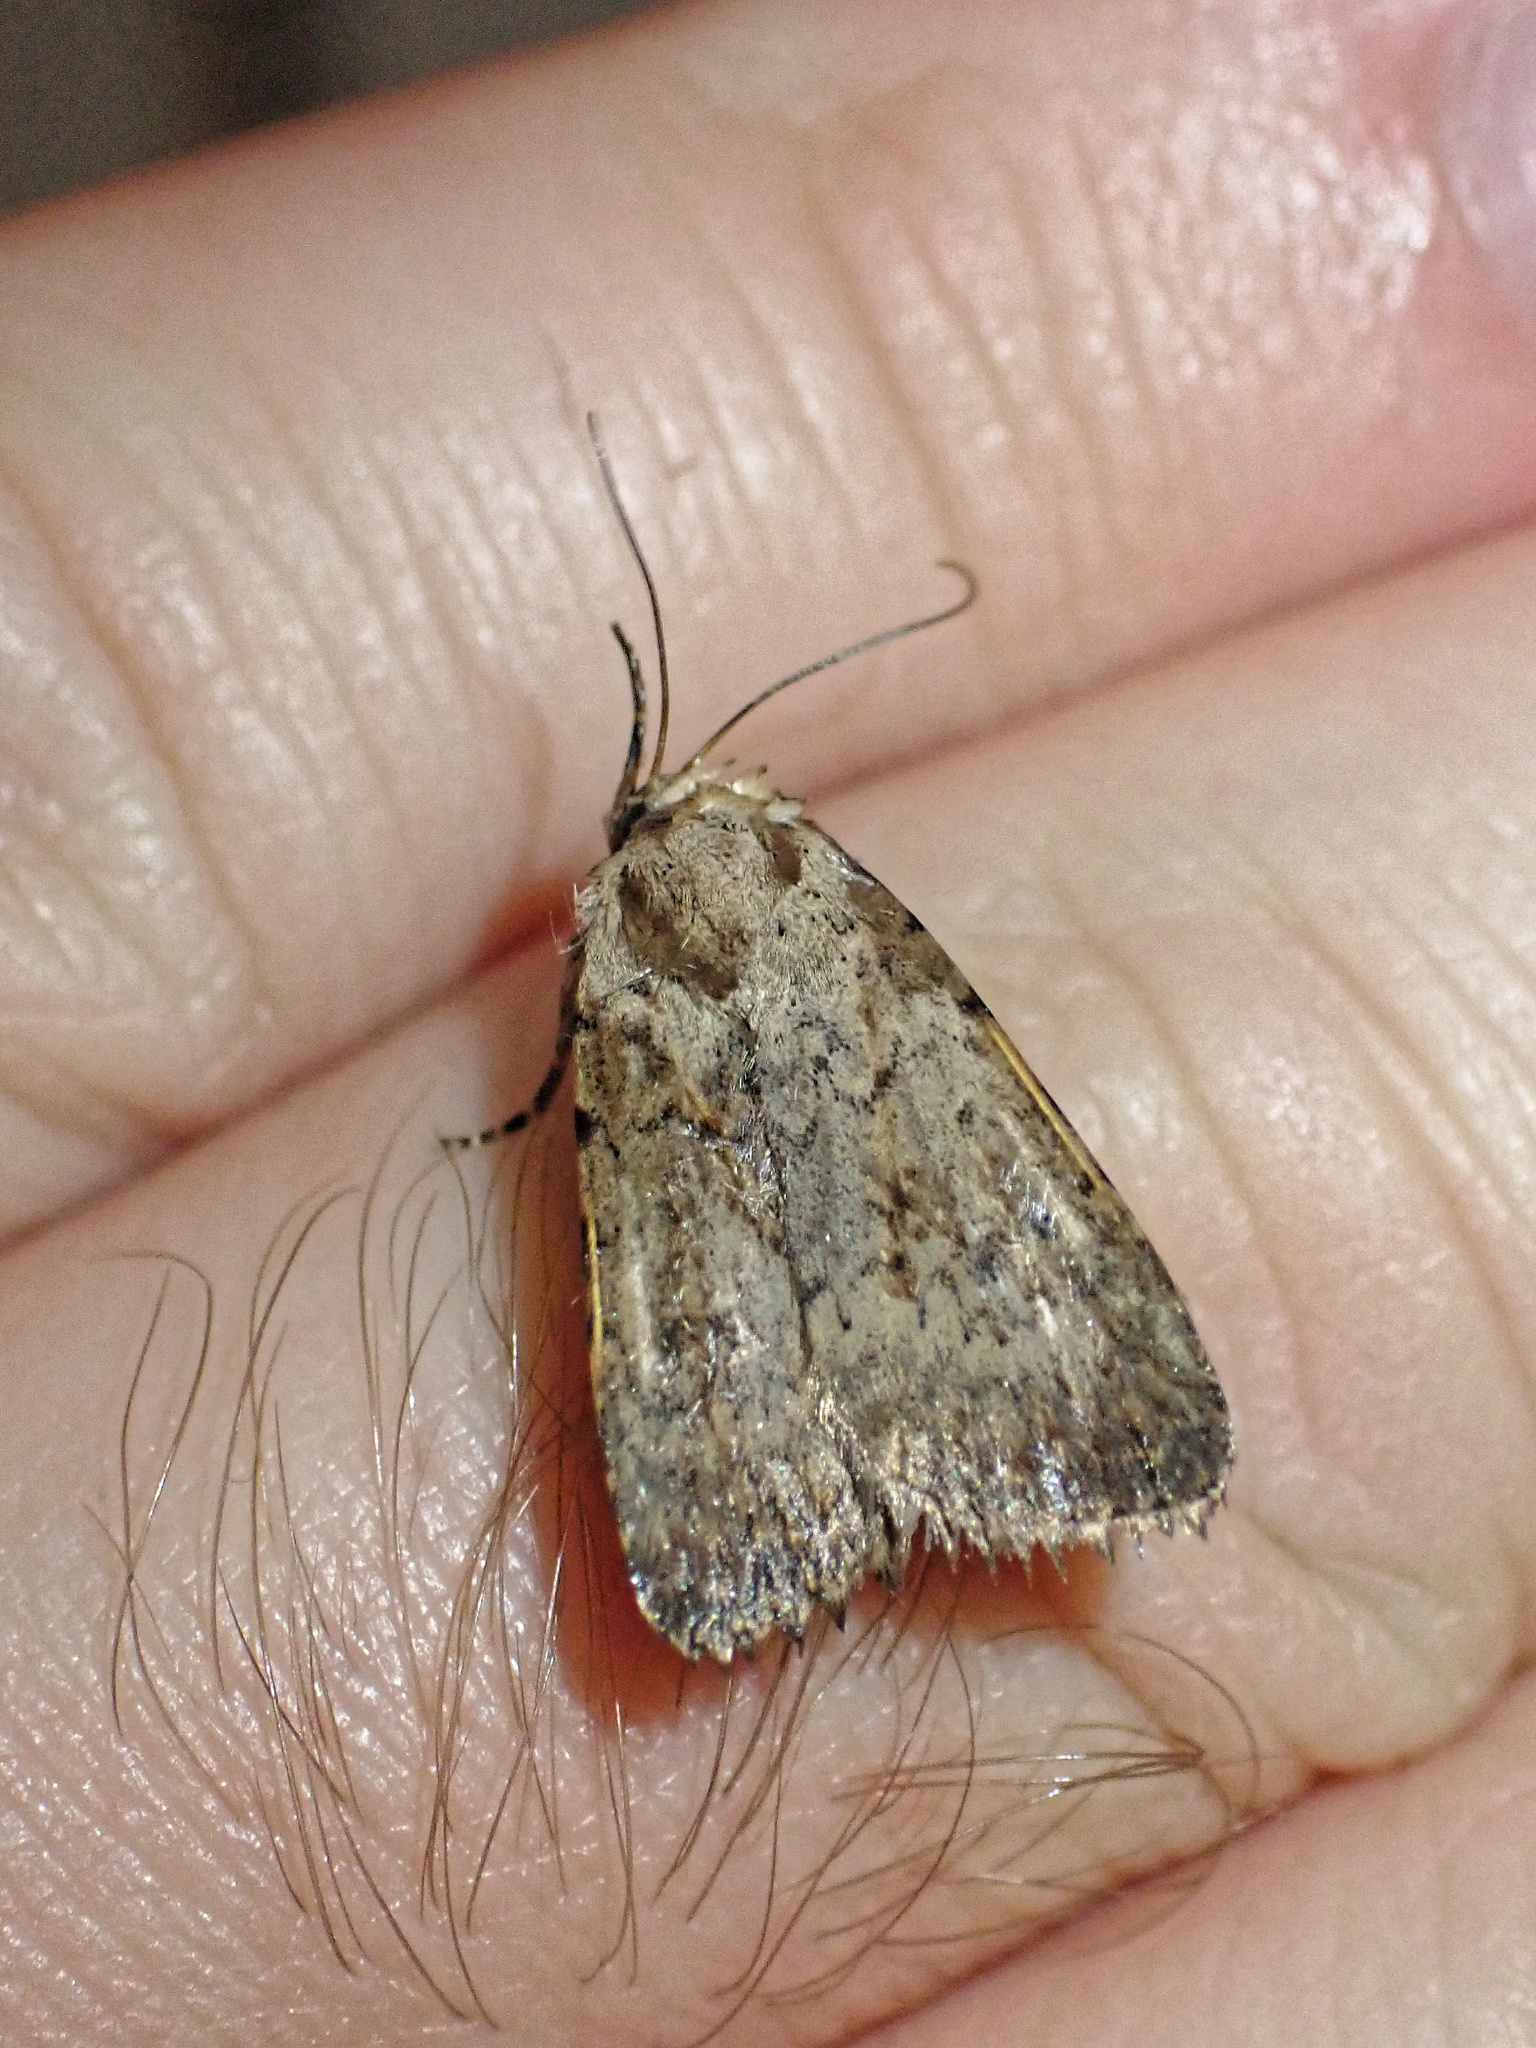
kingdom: Animalia
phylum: Arthropoda
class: Insecta
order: Lepidoptera
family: Noctuidae
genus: Caradrina
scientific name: Caradrina clavipalpis
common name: Pale mottled willow
